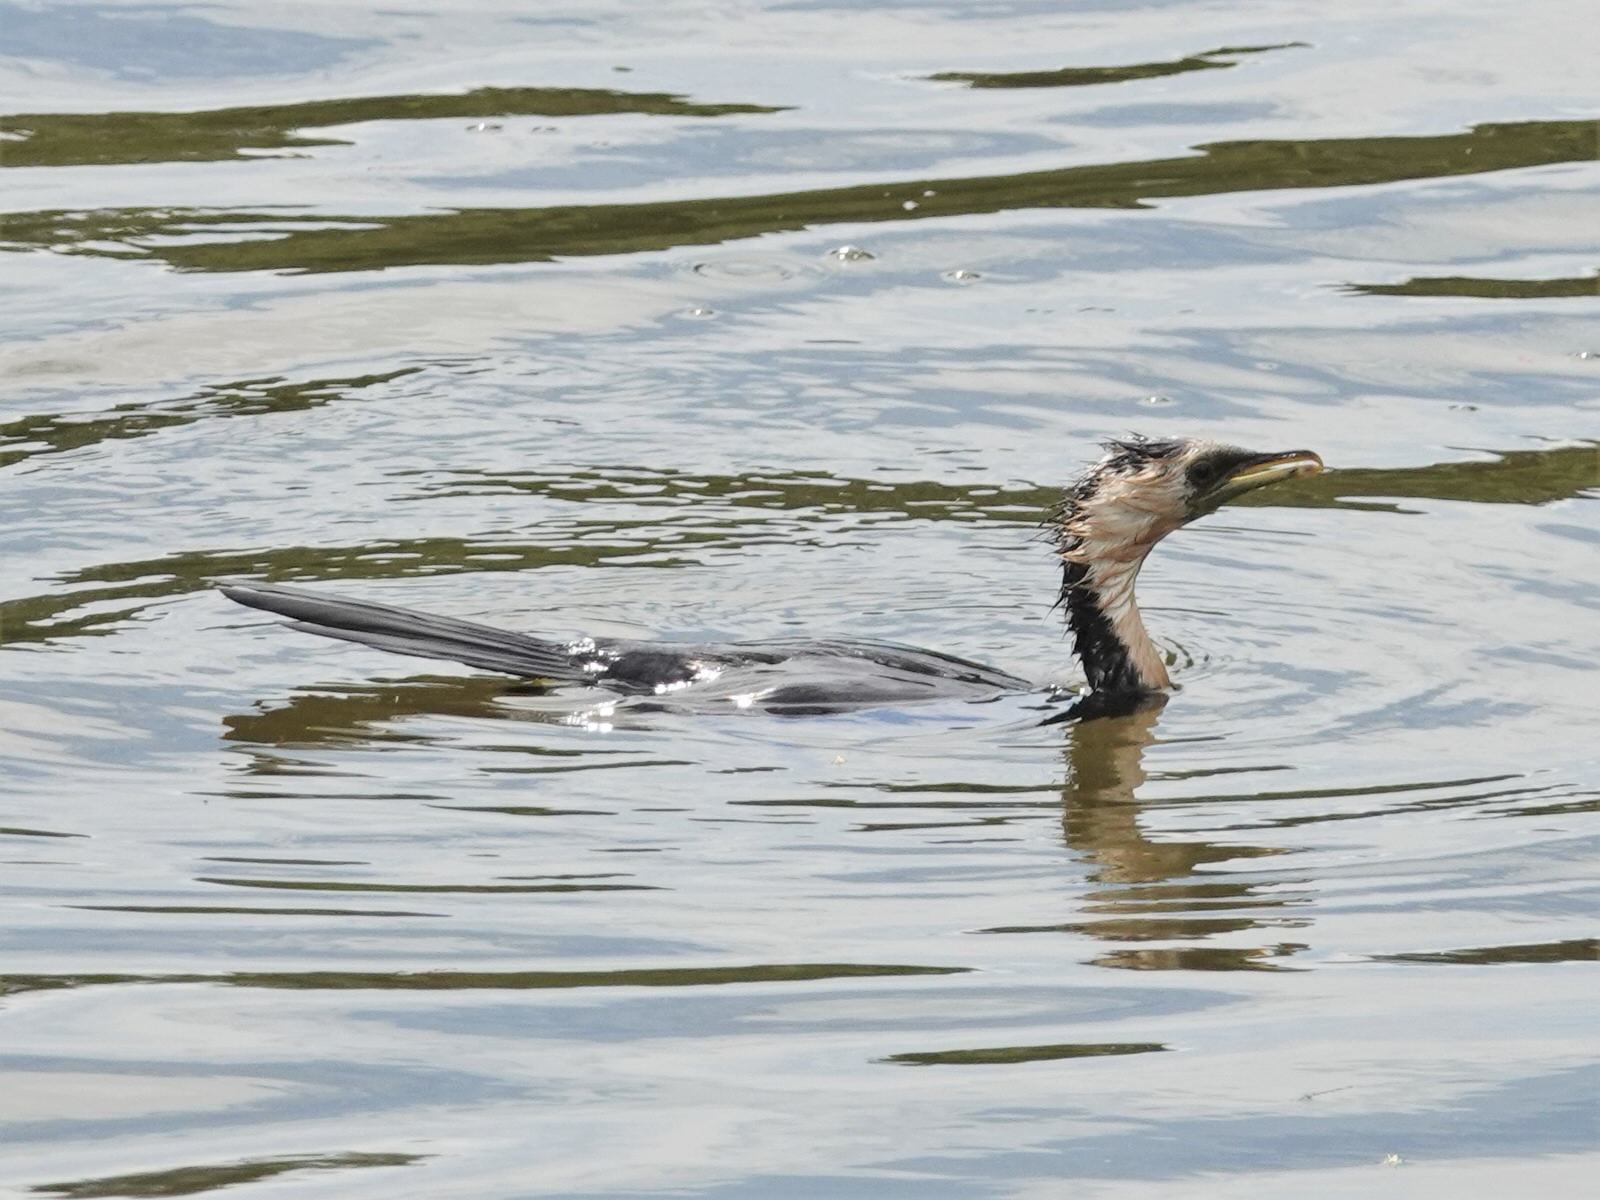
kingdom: Animalia
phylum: Chordata
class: Aves
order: Suliformes
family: Phalacrocoracidae
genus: Microcarbo
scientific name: Microcarbo melanoleucos
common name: Little pied cormorant
